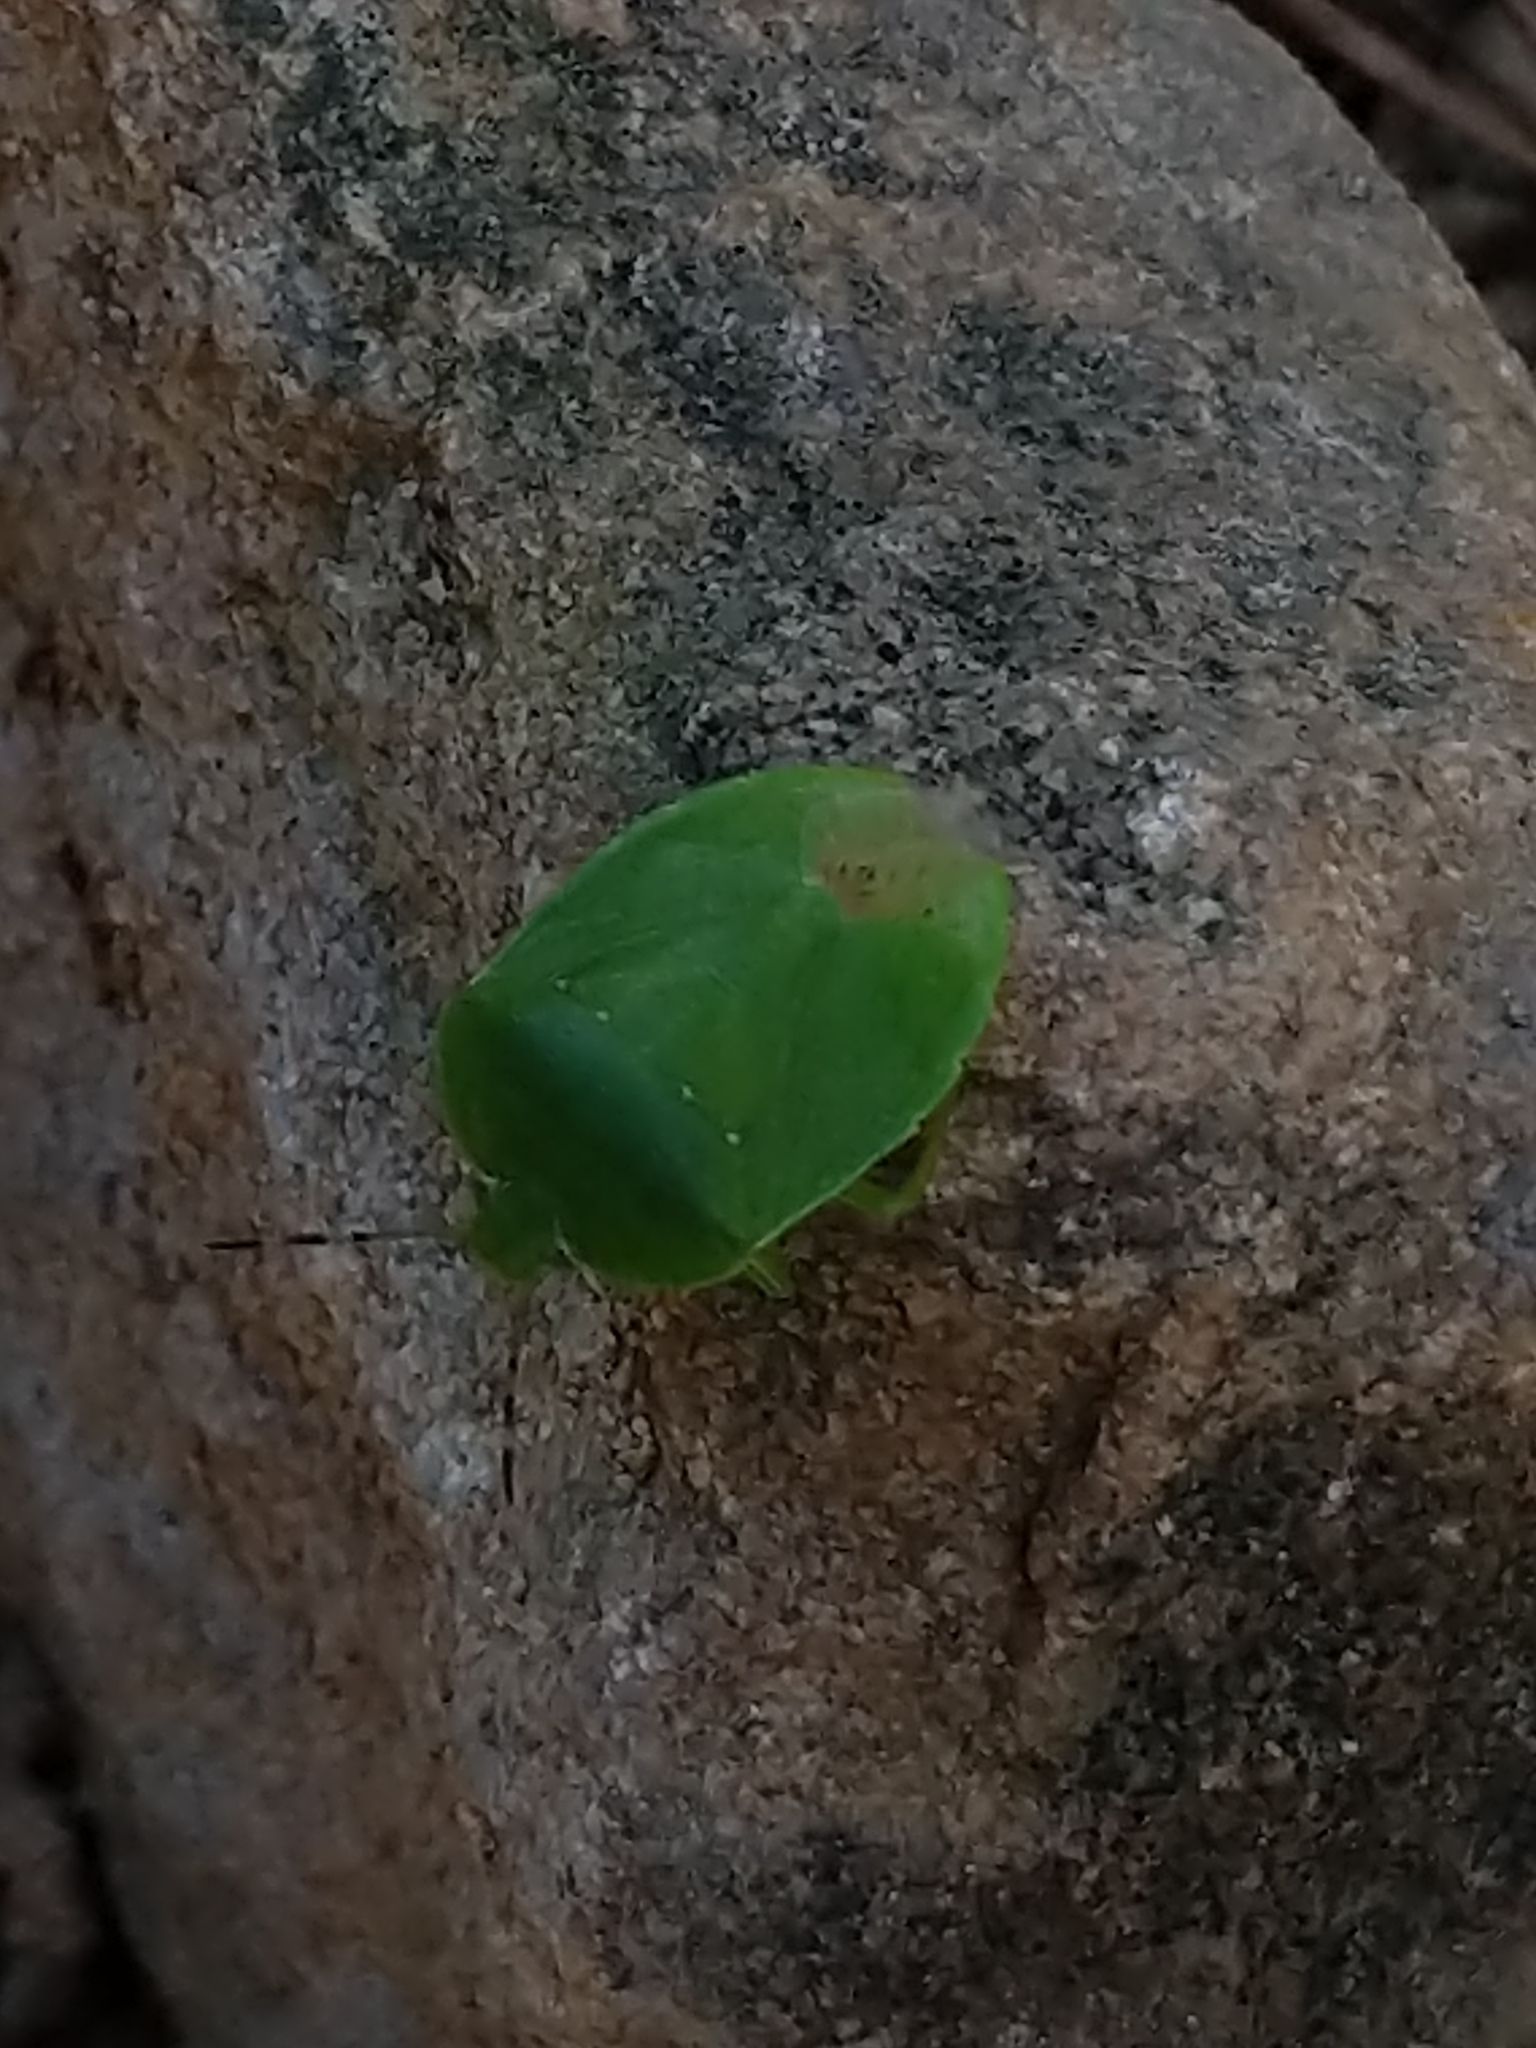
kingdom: Animalia
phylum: Arthropoda
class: Insecta
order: Hemiptera
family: Pentatomidae
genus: Chinavia
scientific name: Chinavia
